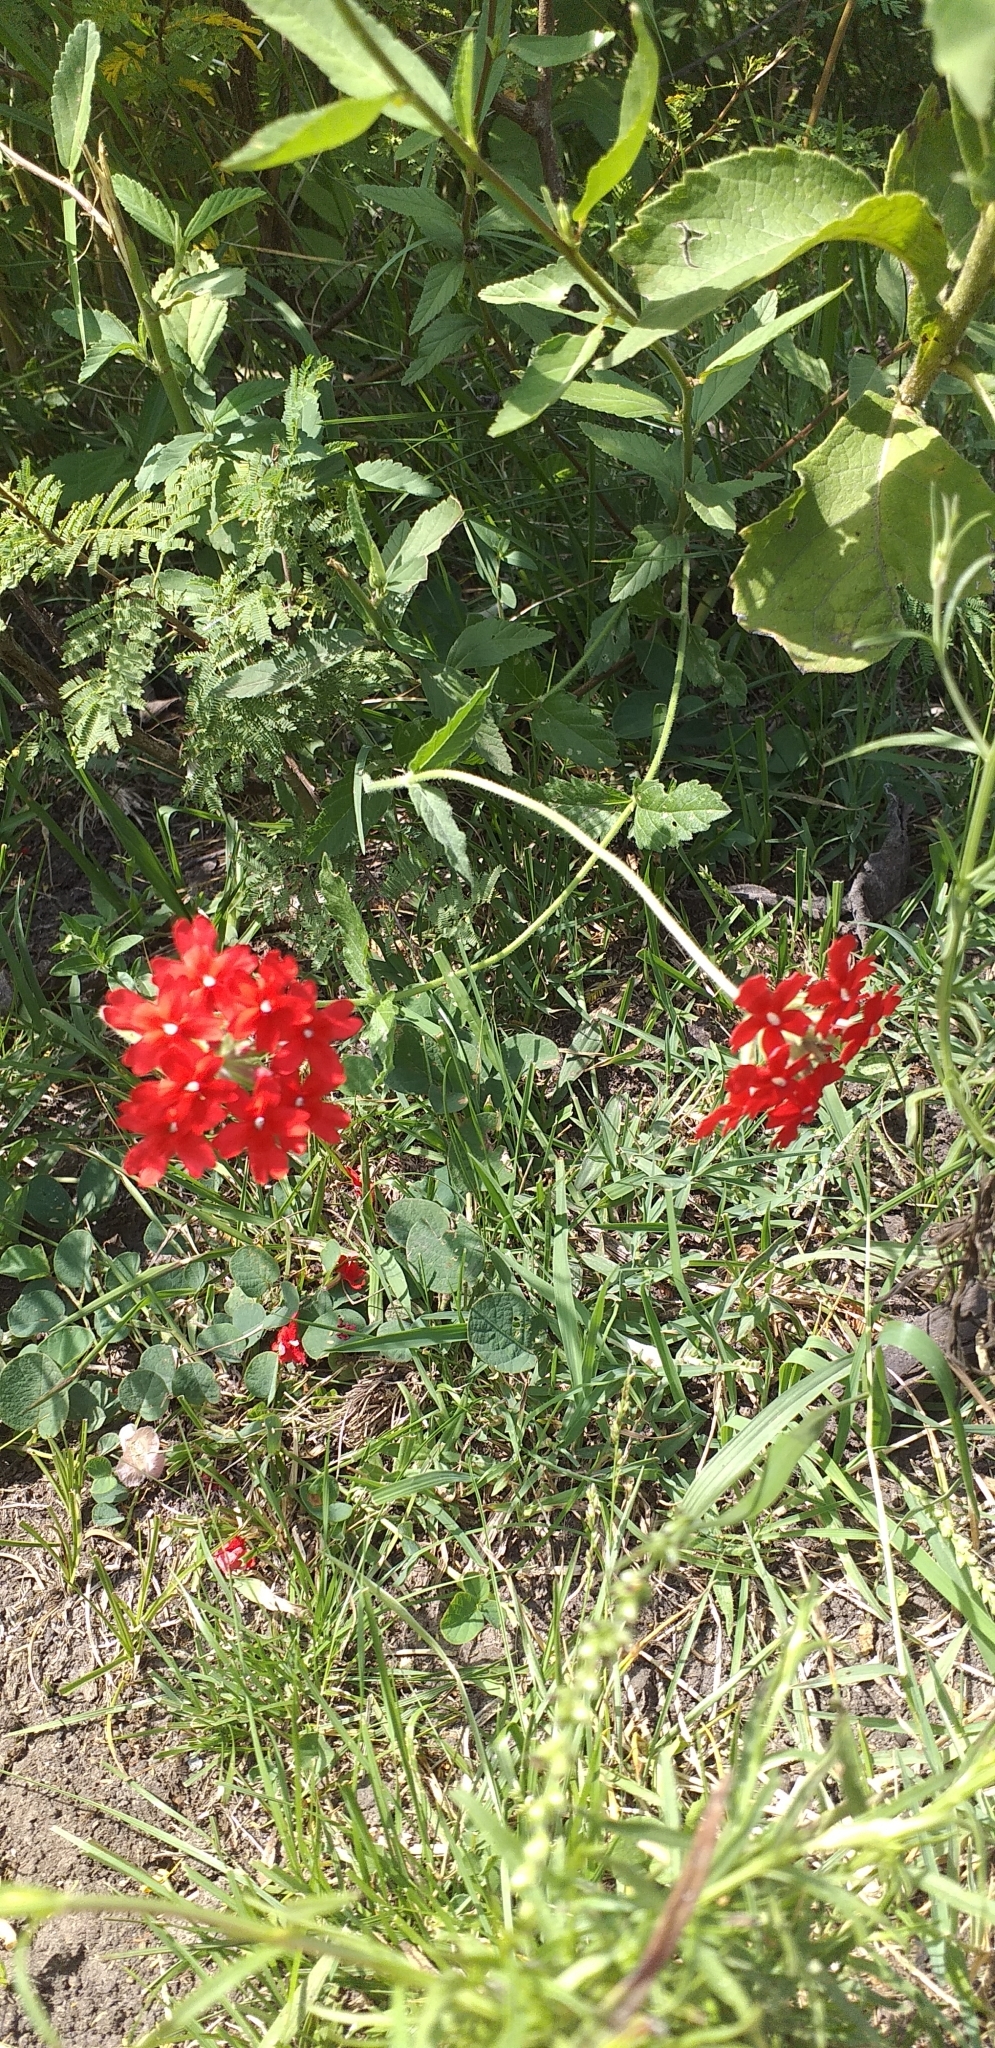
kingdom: Plantae
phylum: Tracheophyta
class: Magnoliopsida
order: Lamiales
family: Verbenaceae
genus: Verbena
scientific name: Verbena peruviana
